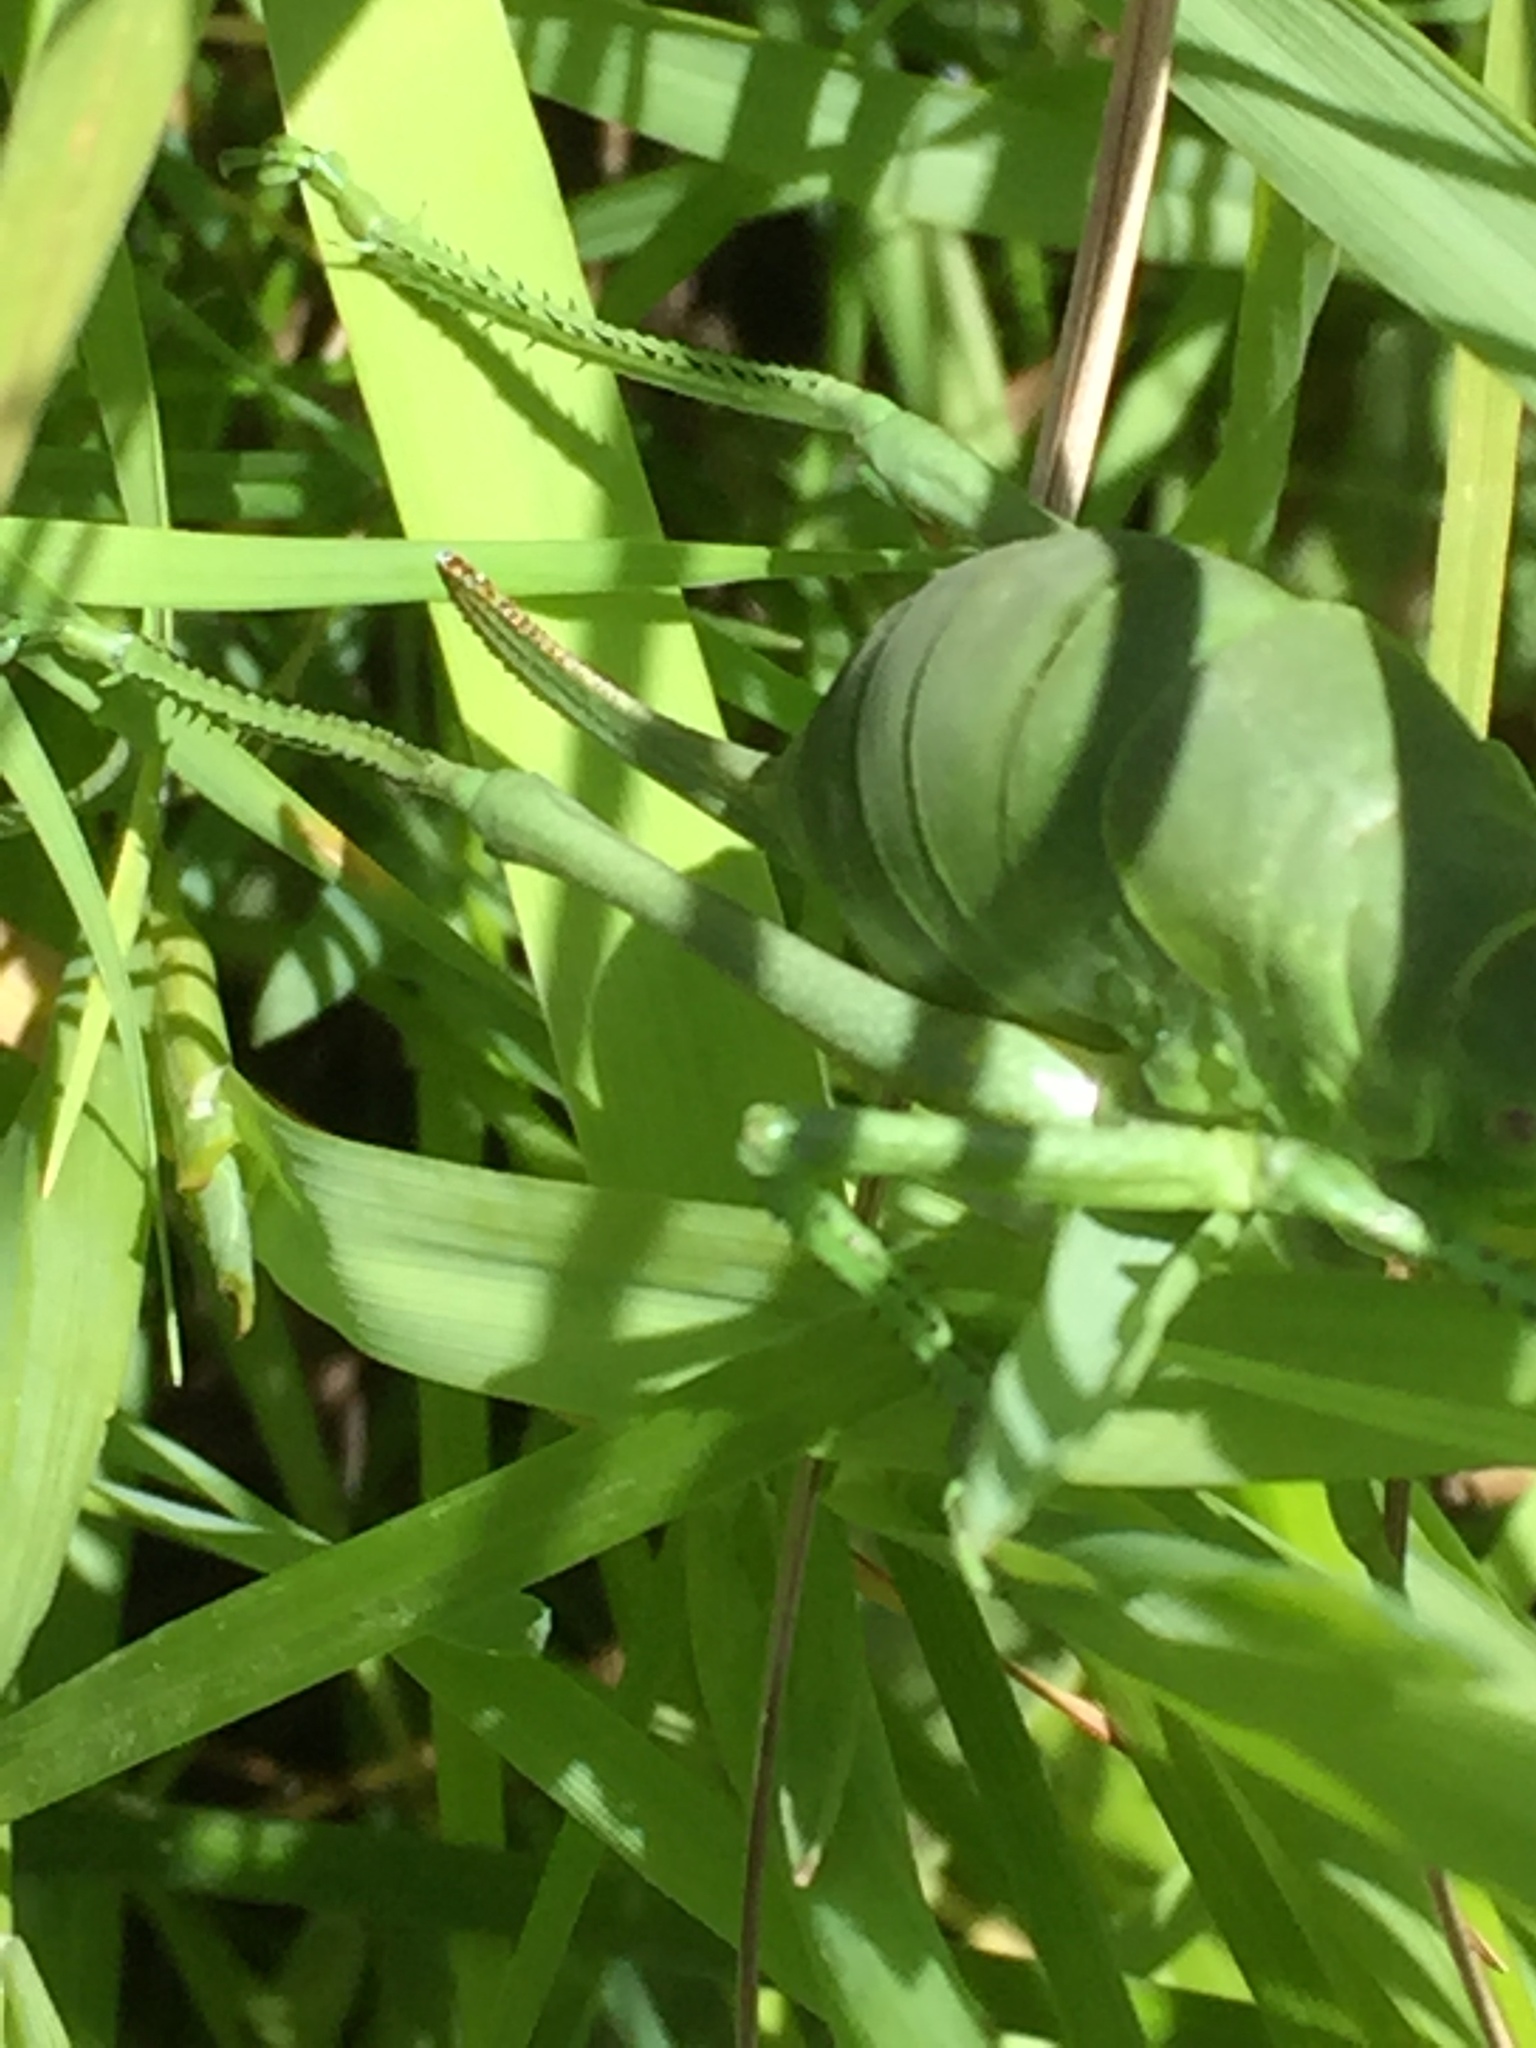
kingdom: Animalia
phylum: Arthropoda
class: Insecta
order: Orthoptera
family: Tettigoniidae
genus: Polysarcus
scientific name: Polysarcus zacharovi
